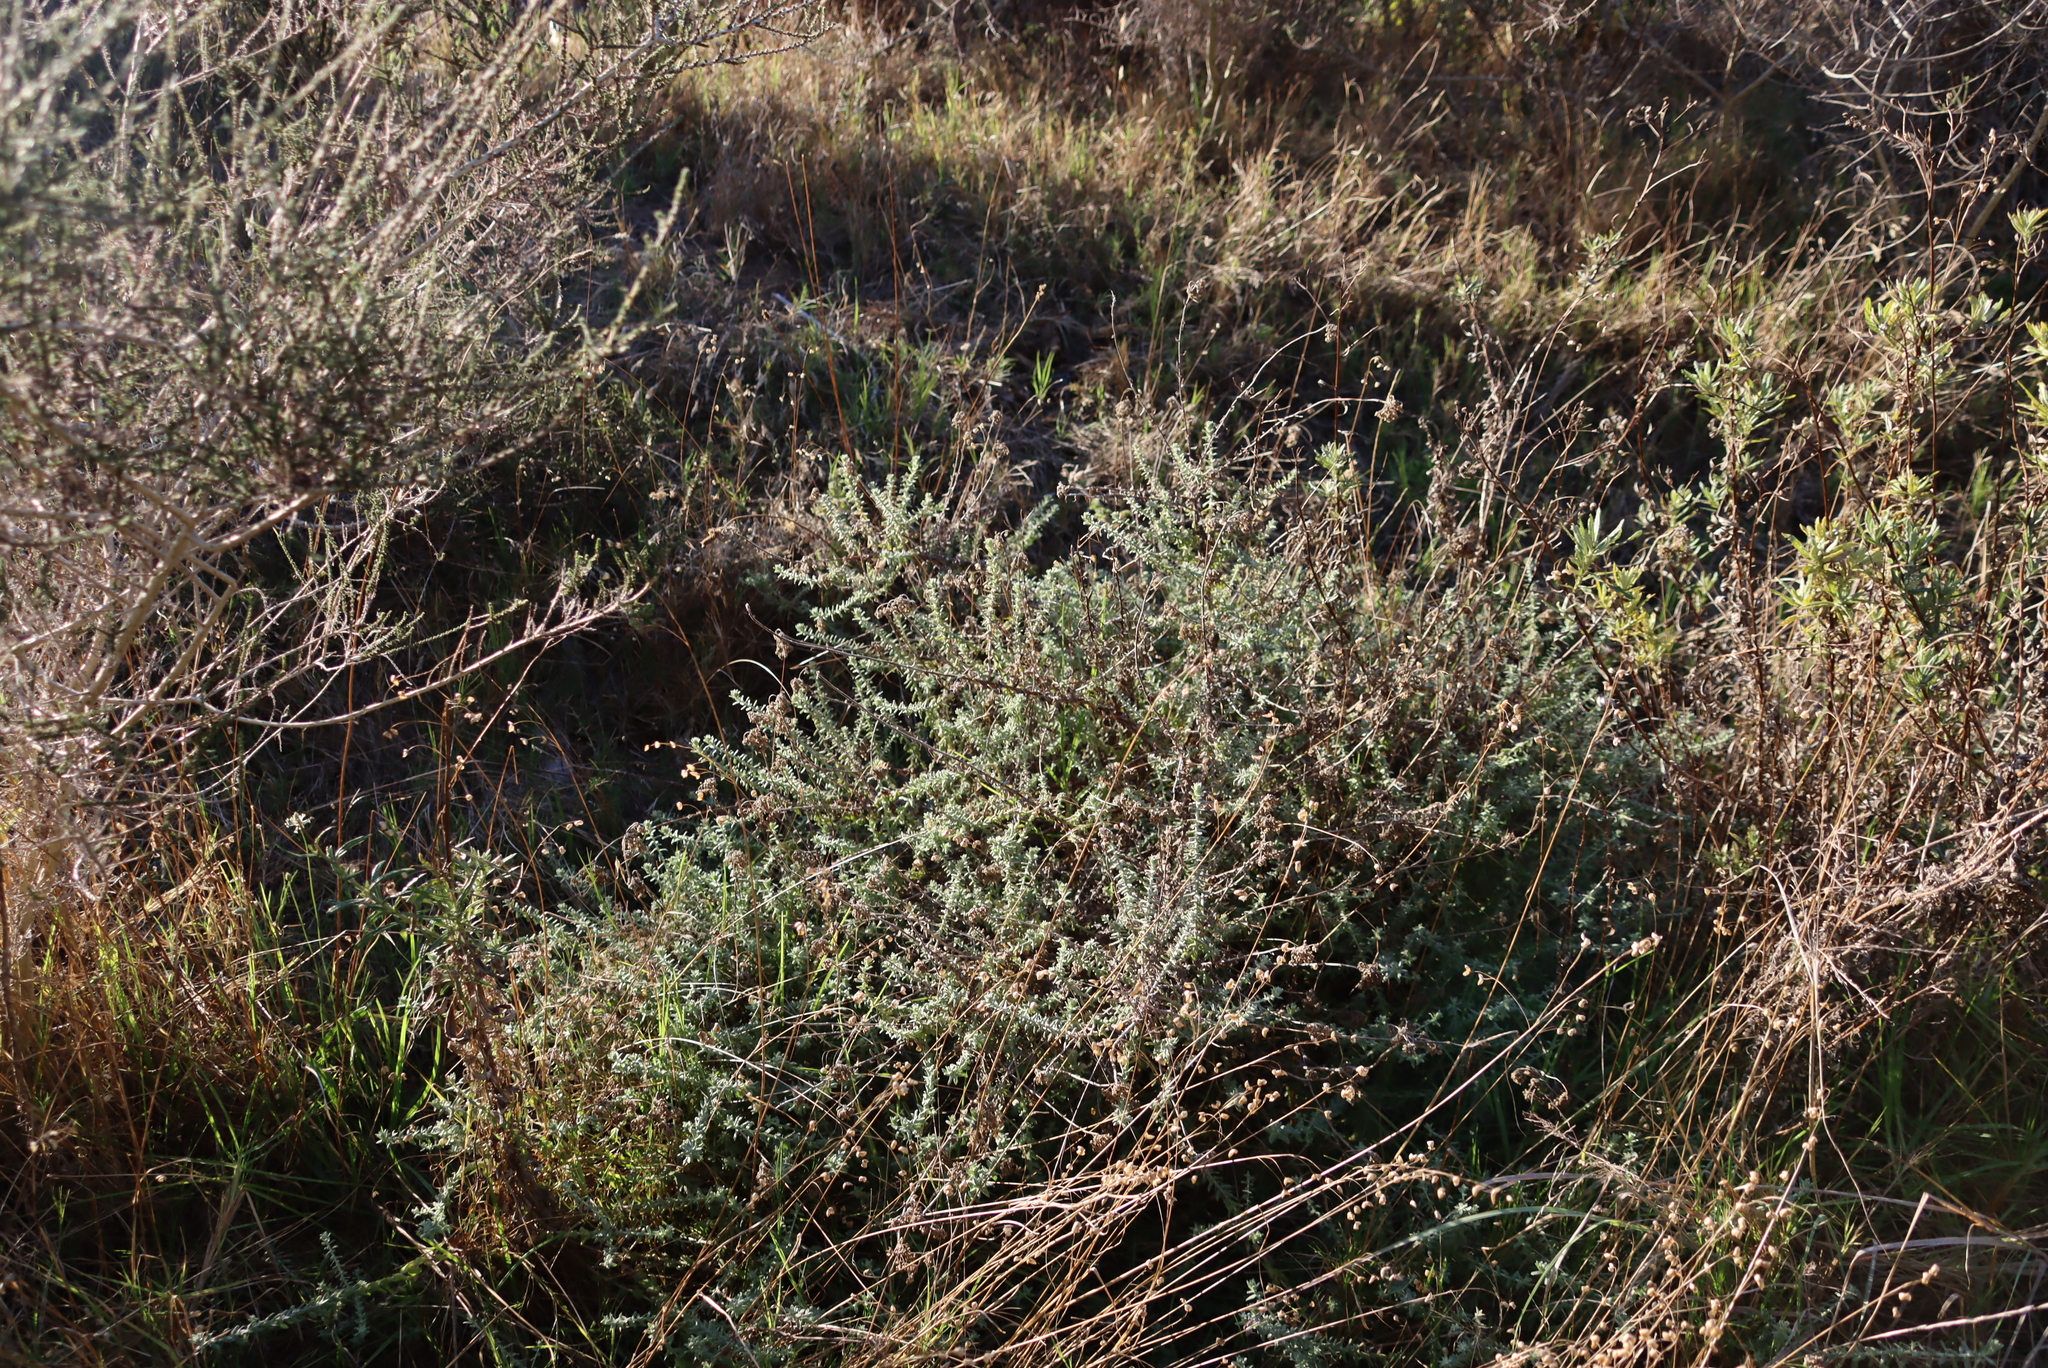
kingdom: Plantae
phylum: Tracheophyta
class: Magnoliopsida
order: Asterales
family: Asteraceae
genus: Helichrysum
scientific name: Helichrysum cymosum
